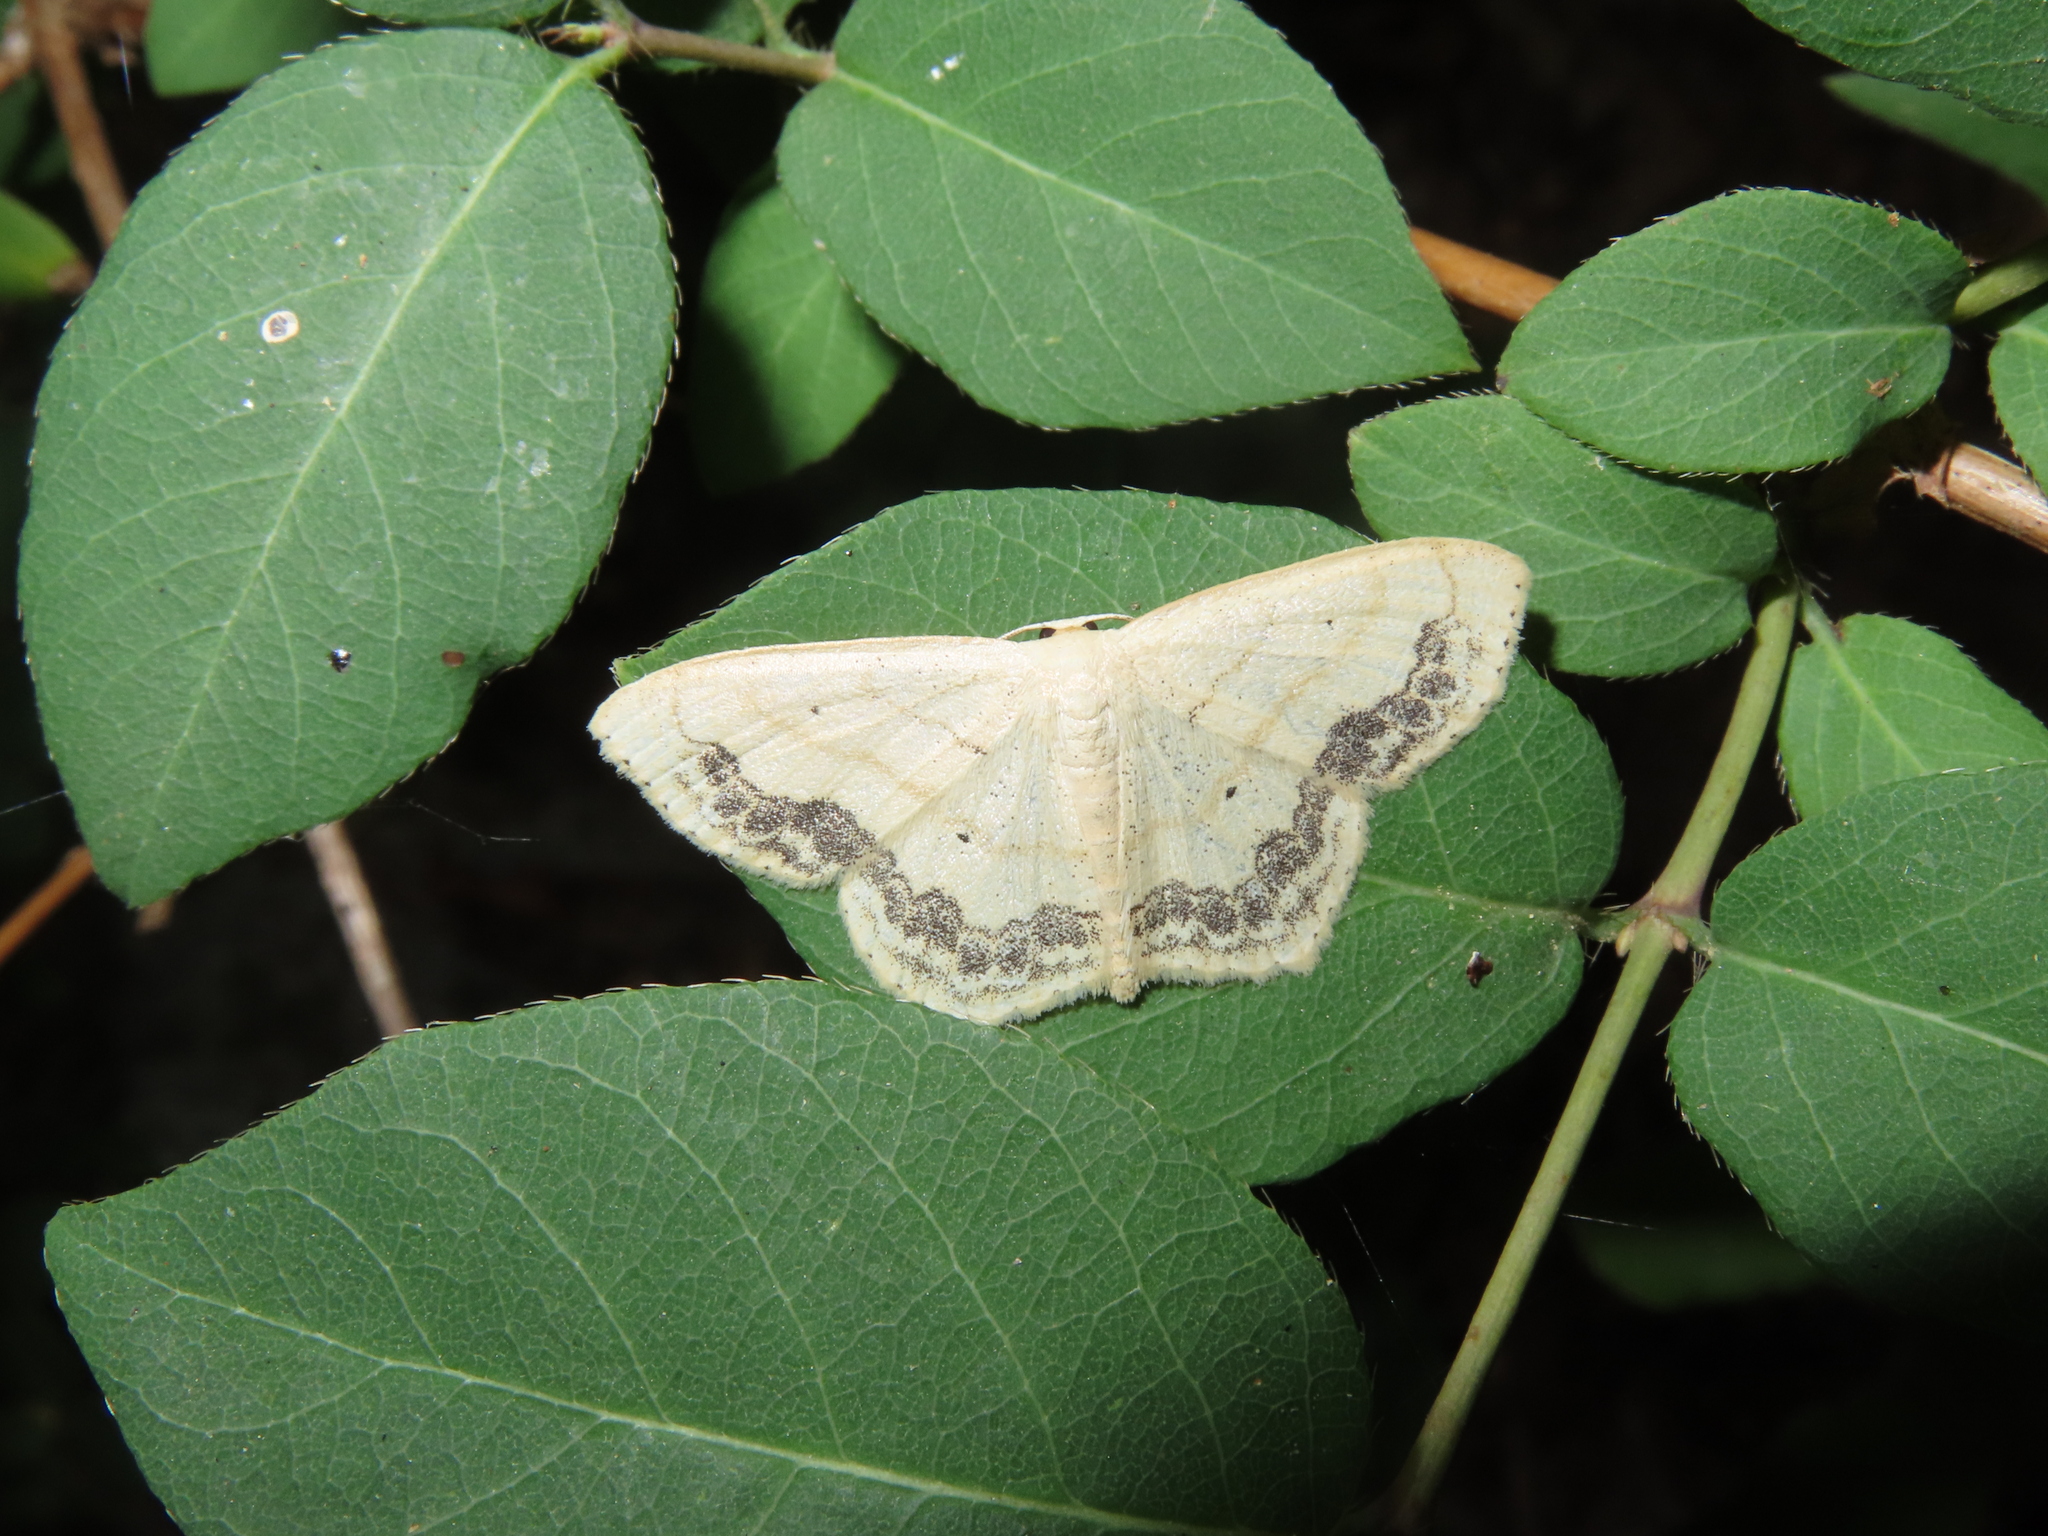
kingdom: Animalia
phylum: Arthropoda
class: Insecta
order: Lepidoptera
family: Geometridae
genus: Scopula
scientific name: Scopula limboundata
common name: Large lace border
